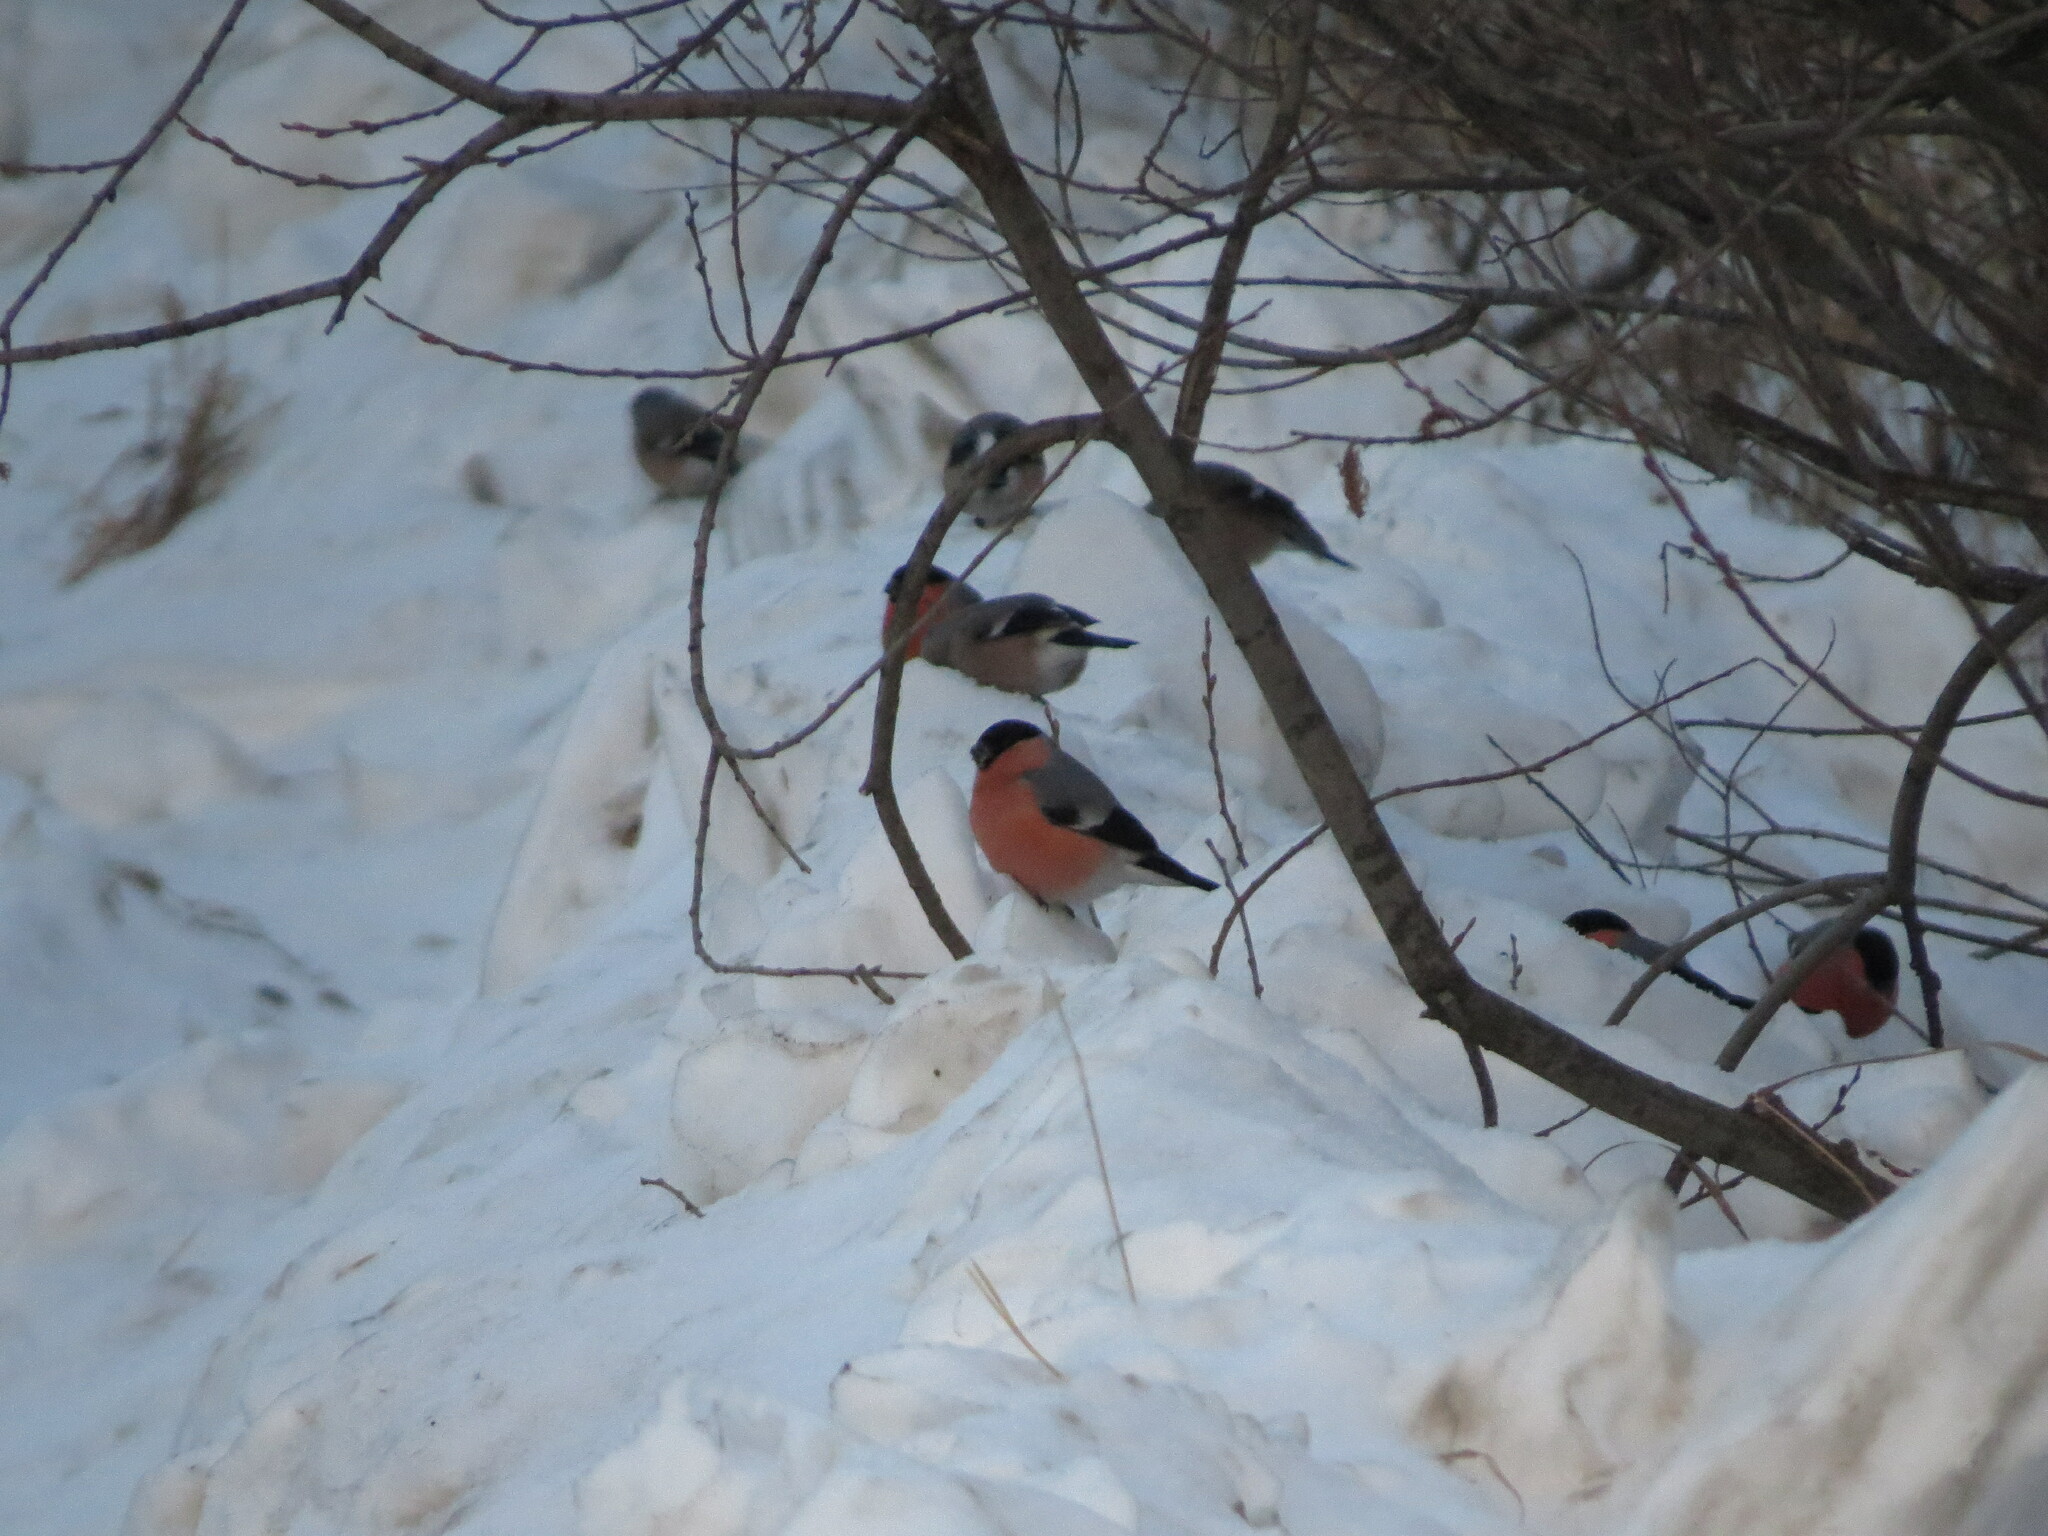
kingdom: Animalia
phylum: Chordata
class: Aves
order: Passeriformes
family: Fringillidae
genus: Pyrrhula
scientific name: Pyrrhula pyrrhula
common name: Eurasian bullfinch
